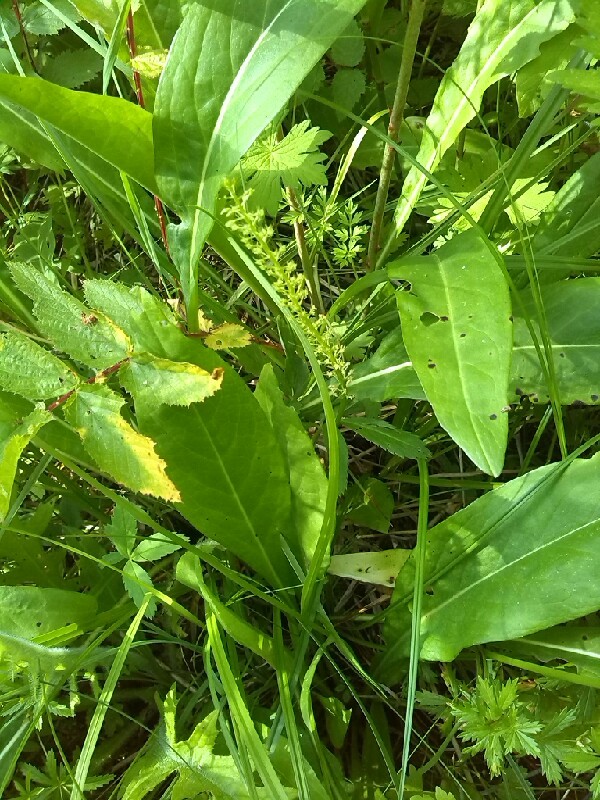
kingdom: Plantae
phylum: Tracheophyta
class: Liliopsida
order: Asparagales
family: Orchidaceae
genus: Malaxis
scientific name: Malaxis monophyllos
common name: White adder's-mouth
